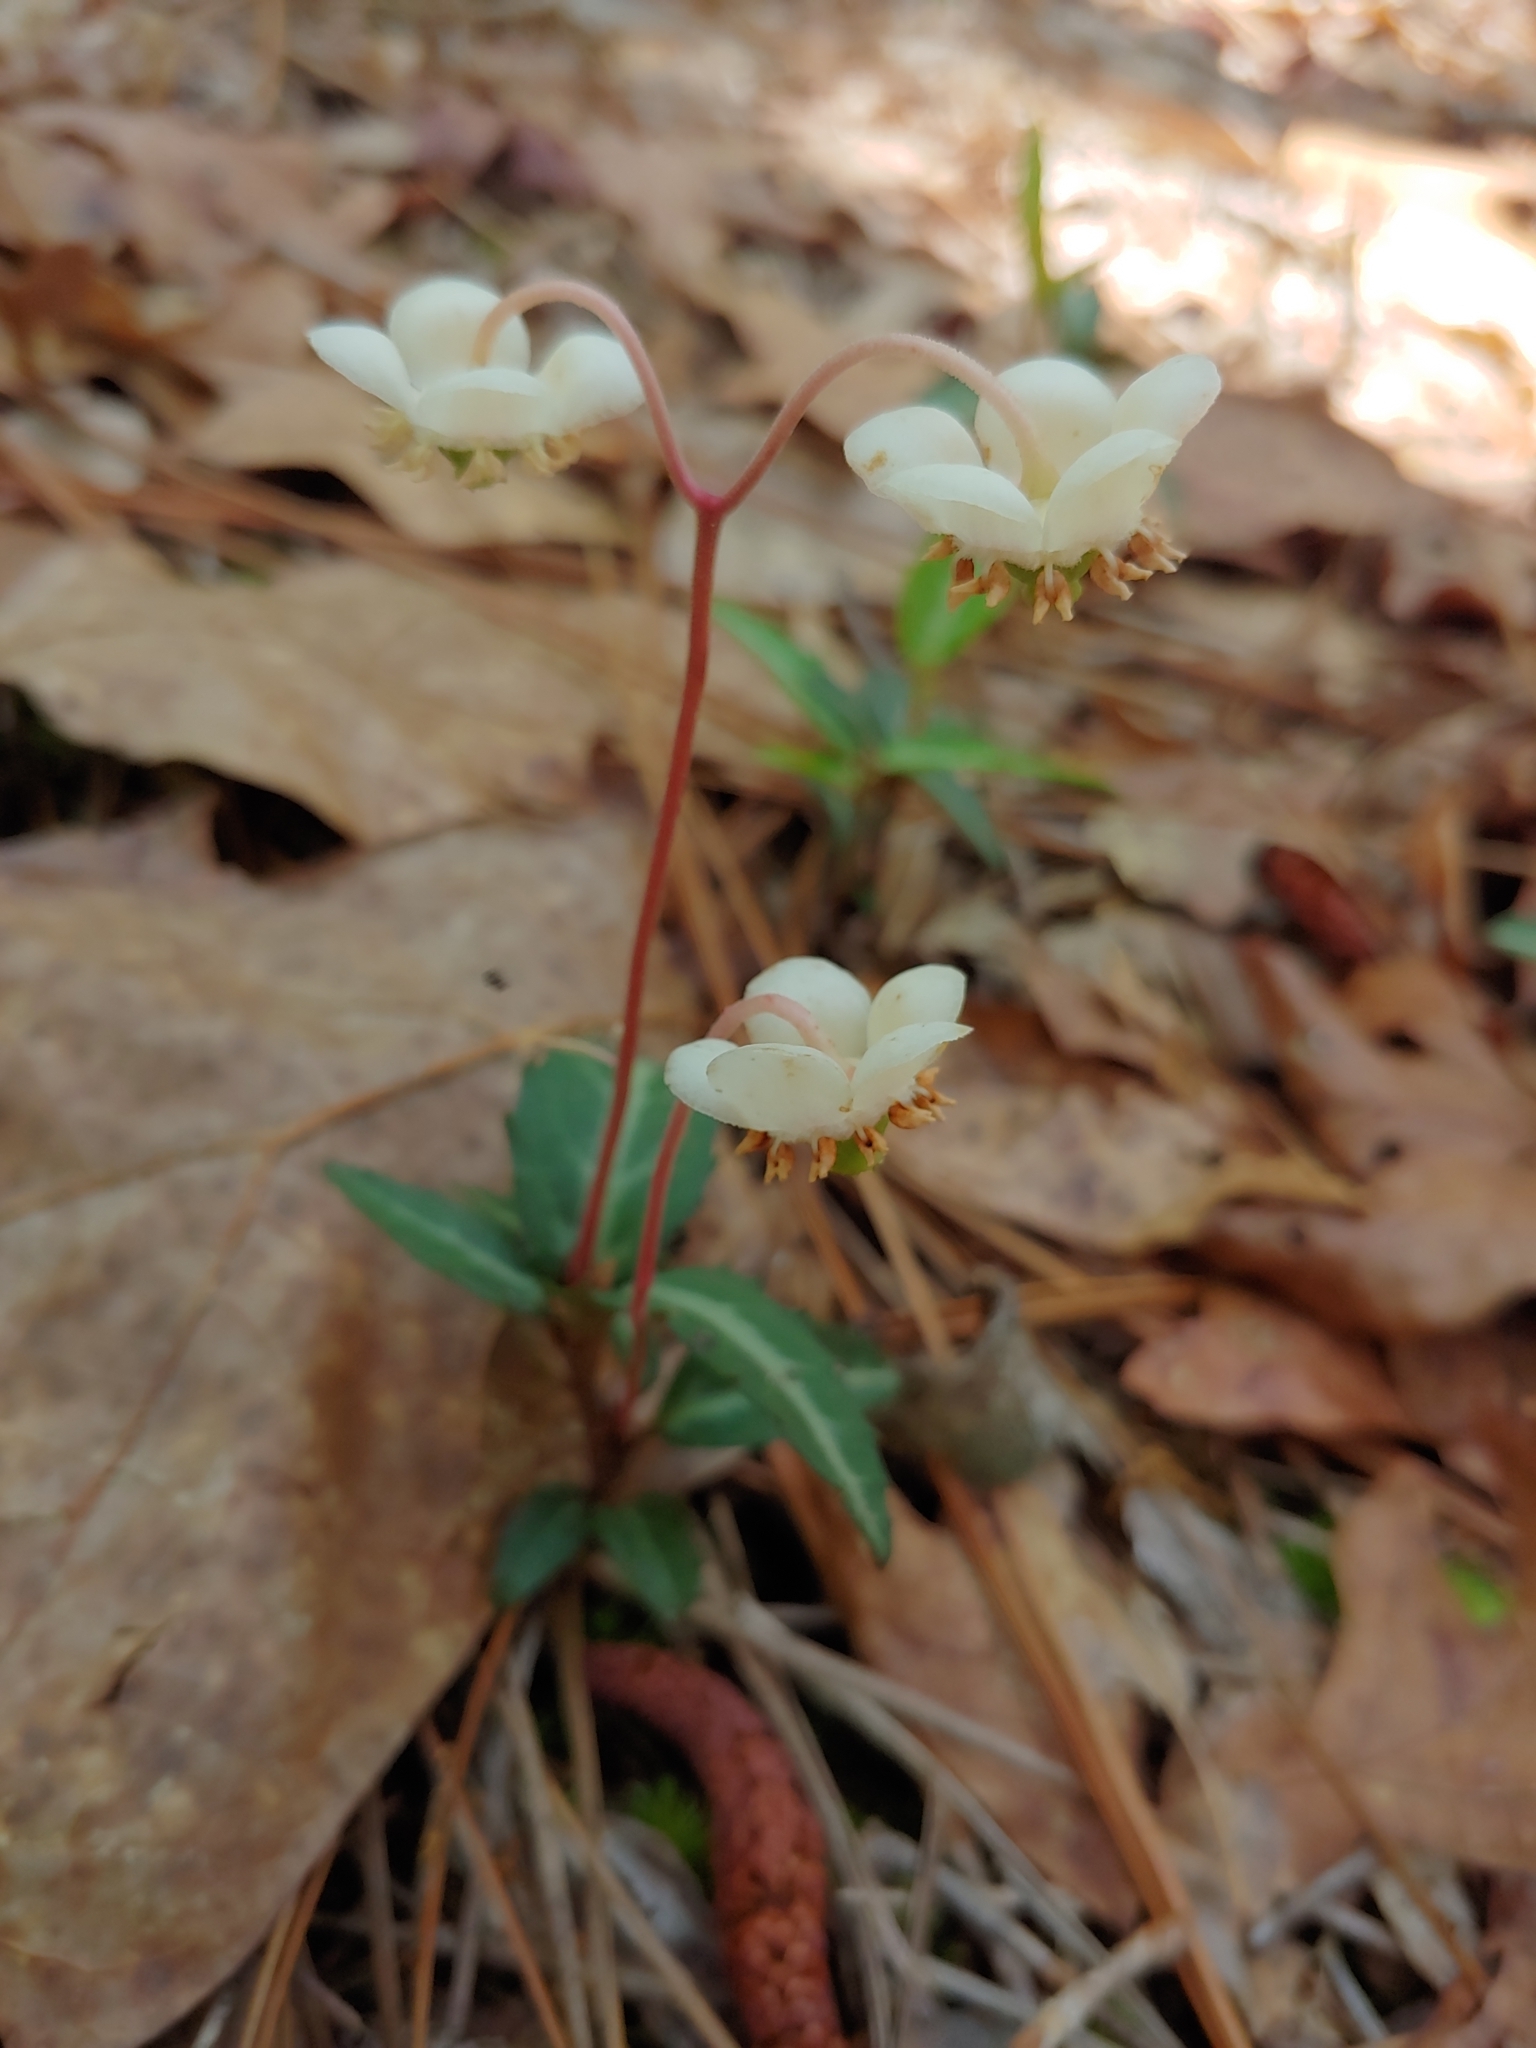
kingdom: Plantae
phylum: Tracheophyta
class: Magnoliopsida
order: Ericales
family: Ericaceae
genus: Chimaphila
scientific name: Chimaphila maculata
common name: Spotted pipsissewa
